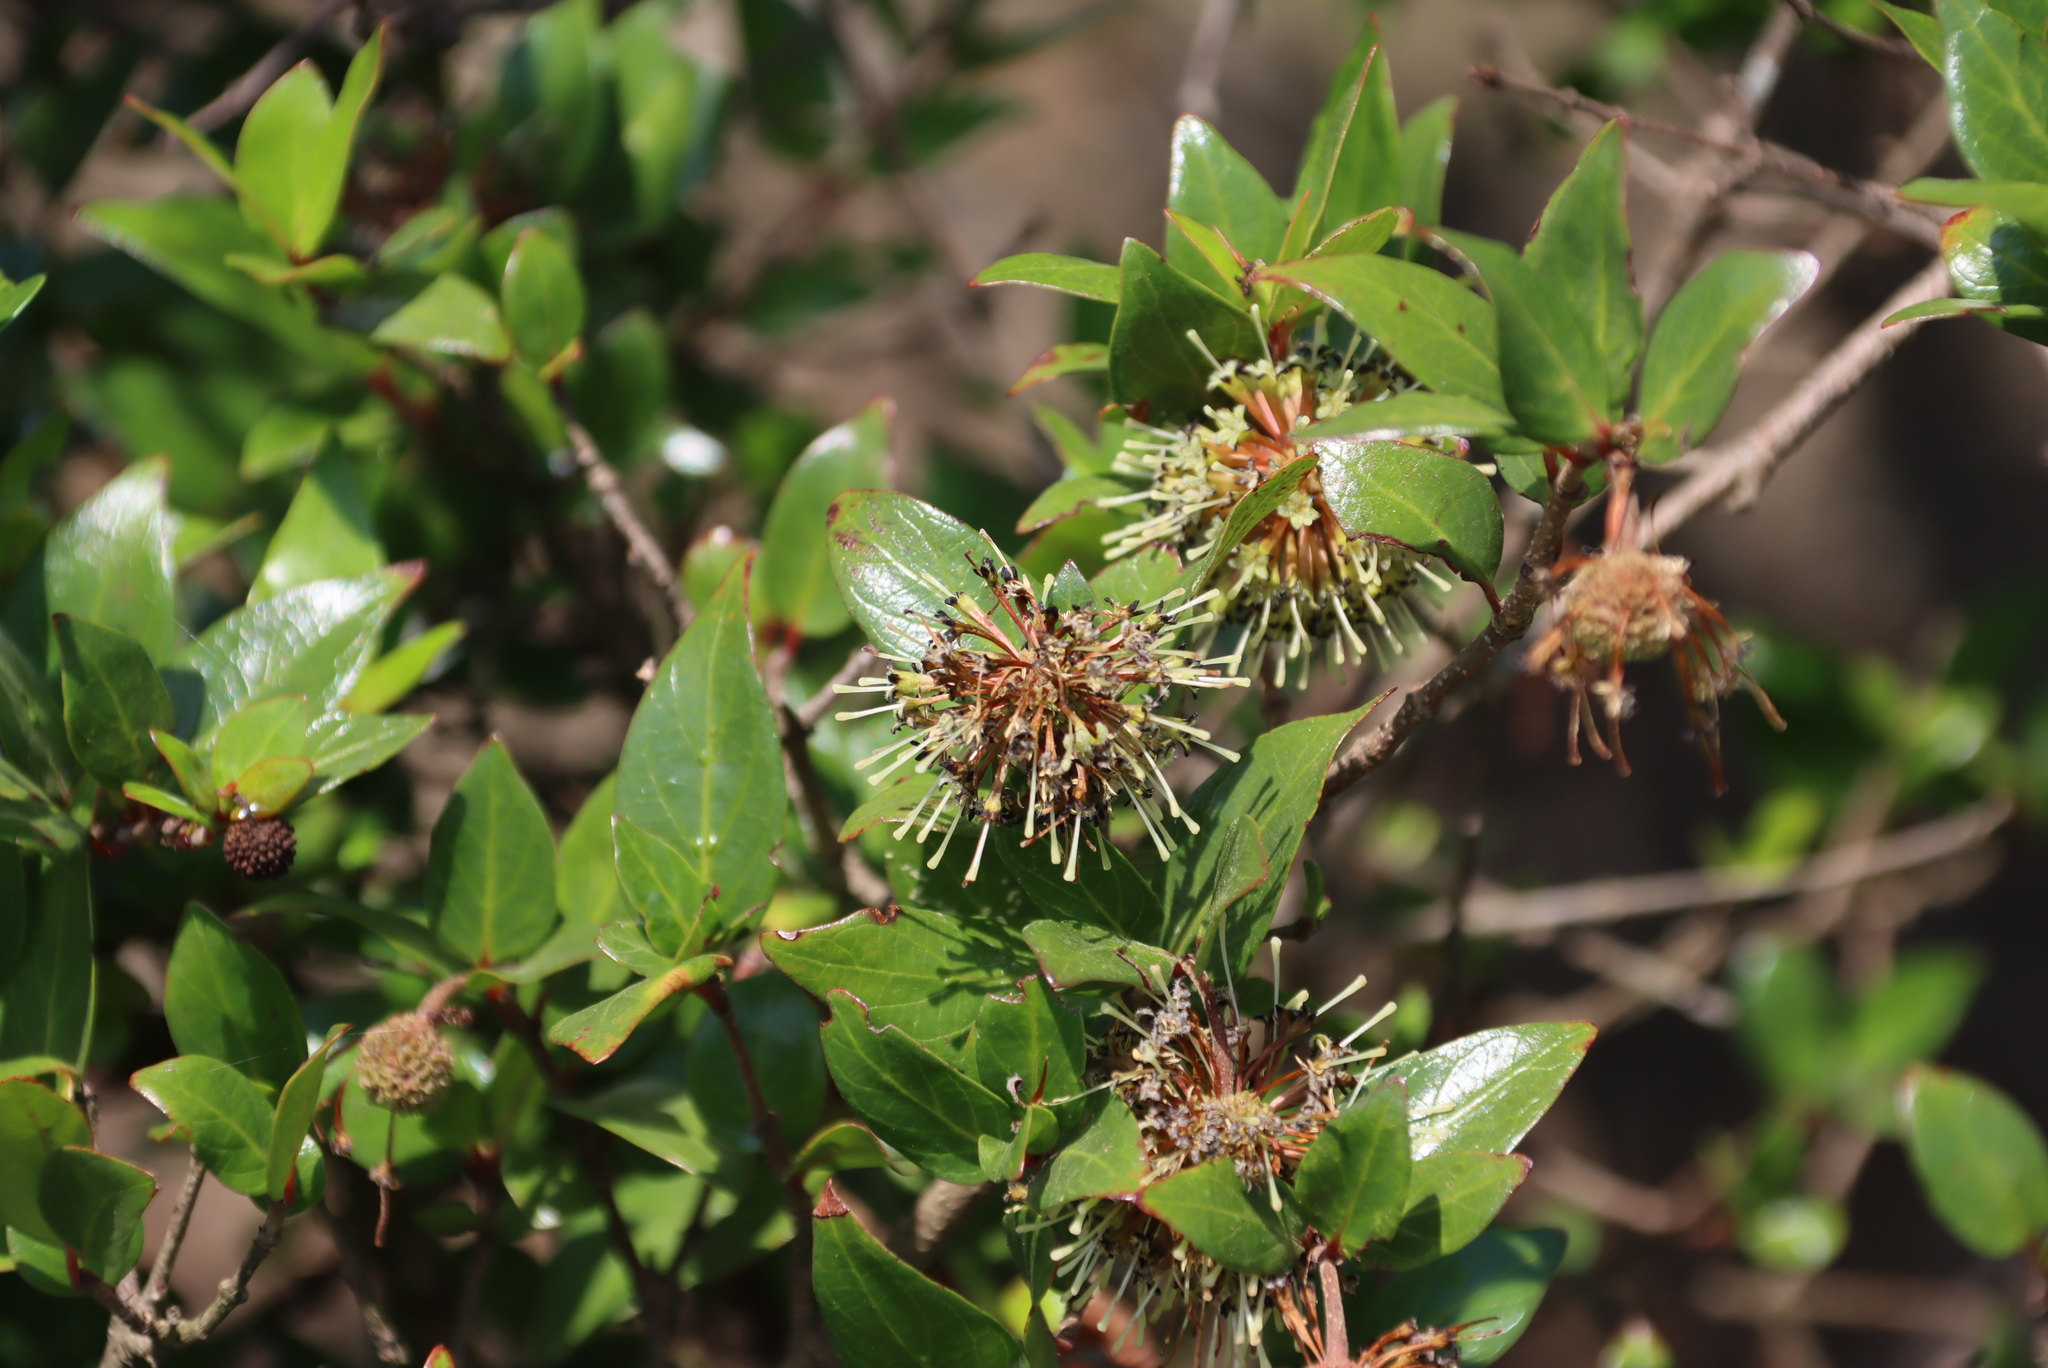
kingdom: Plantae
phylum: Tracheophyta
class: Magnoliopsida
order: Gentianales
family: Rubiaceae
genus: Cephalanthus
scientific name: Cephalanthus natalensis
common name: Strawberry bush
